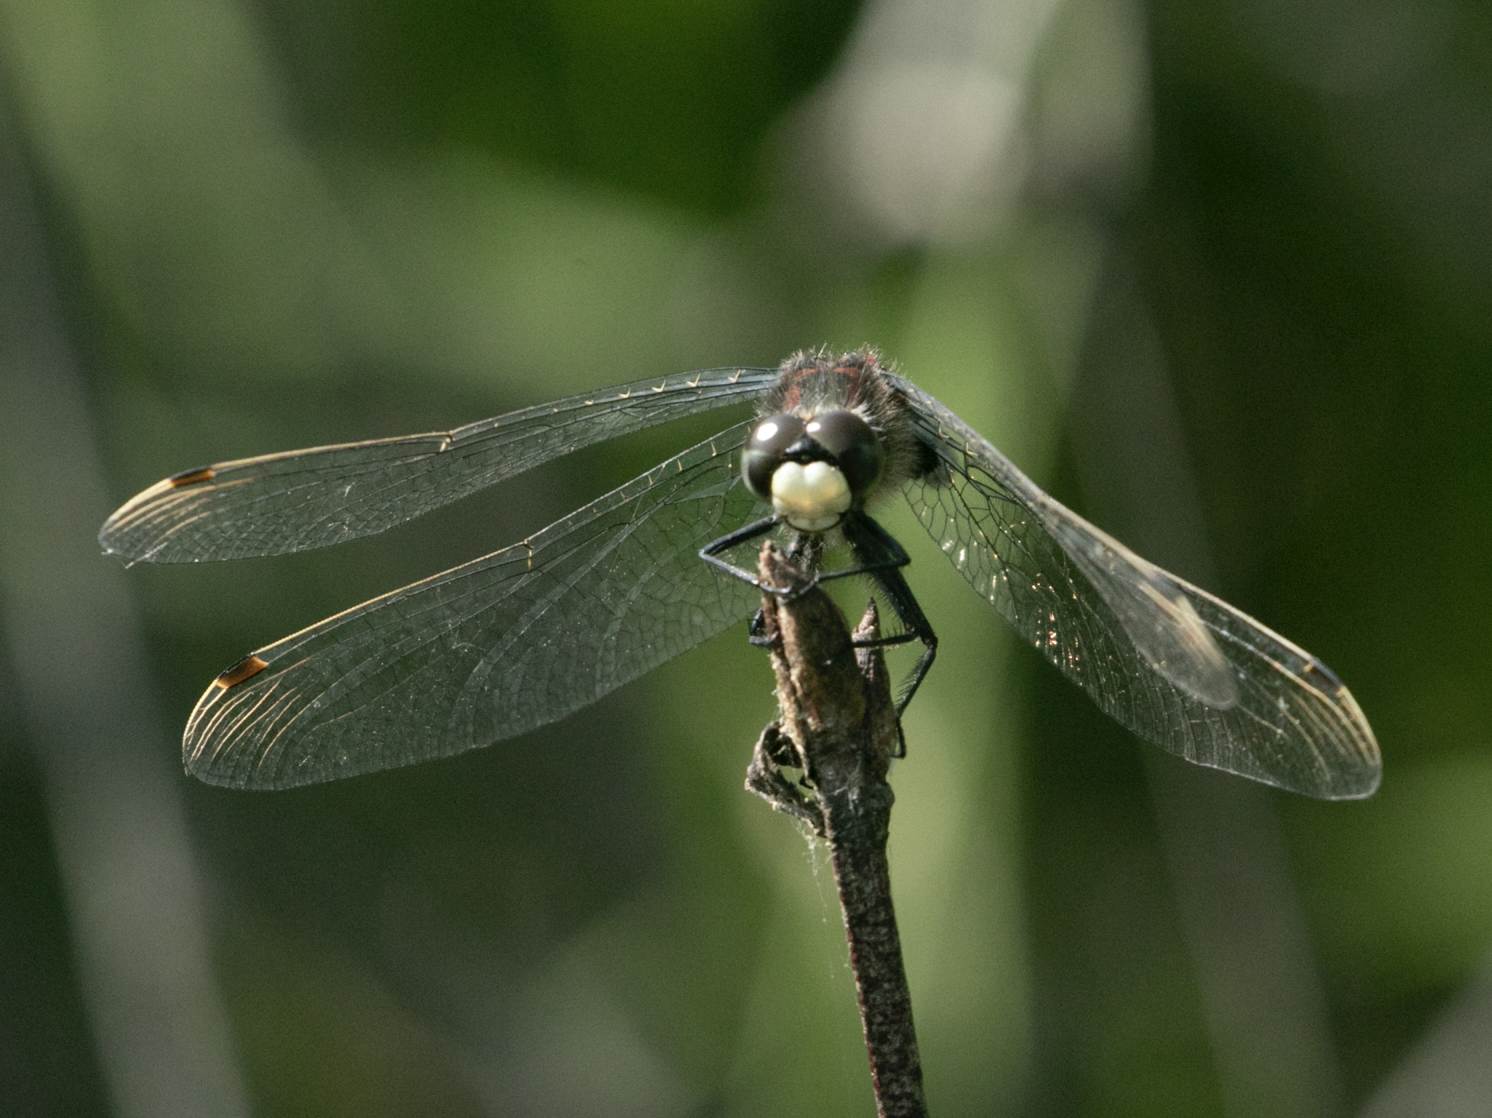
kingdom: Animalia
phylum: Arthropoda
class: Insecta
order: Odonata
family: Libellulidae
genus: Leucorrhinia
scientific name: Leucorrhinia dubia
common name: White-faced darter
